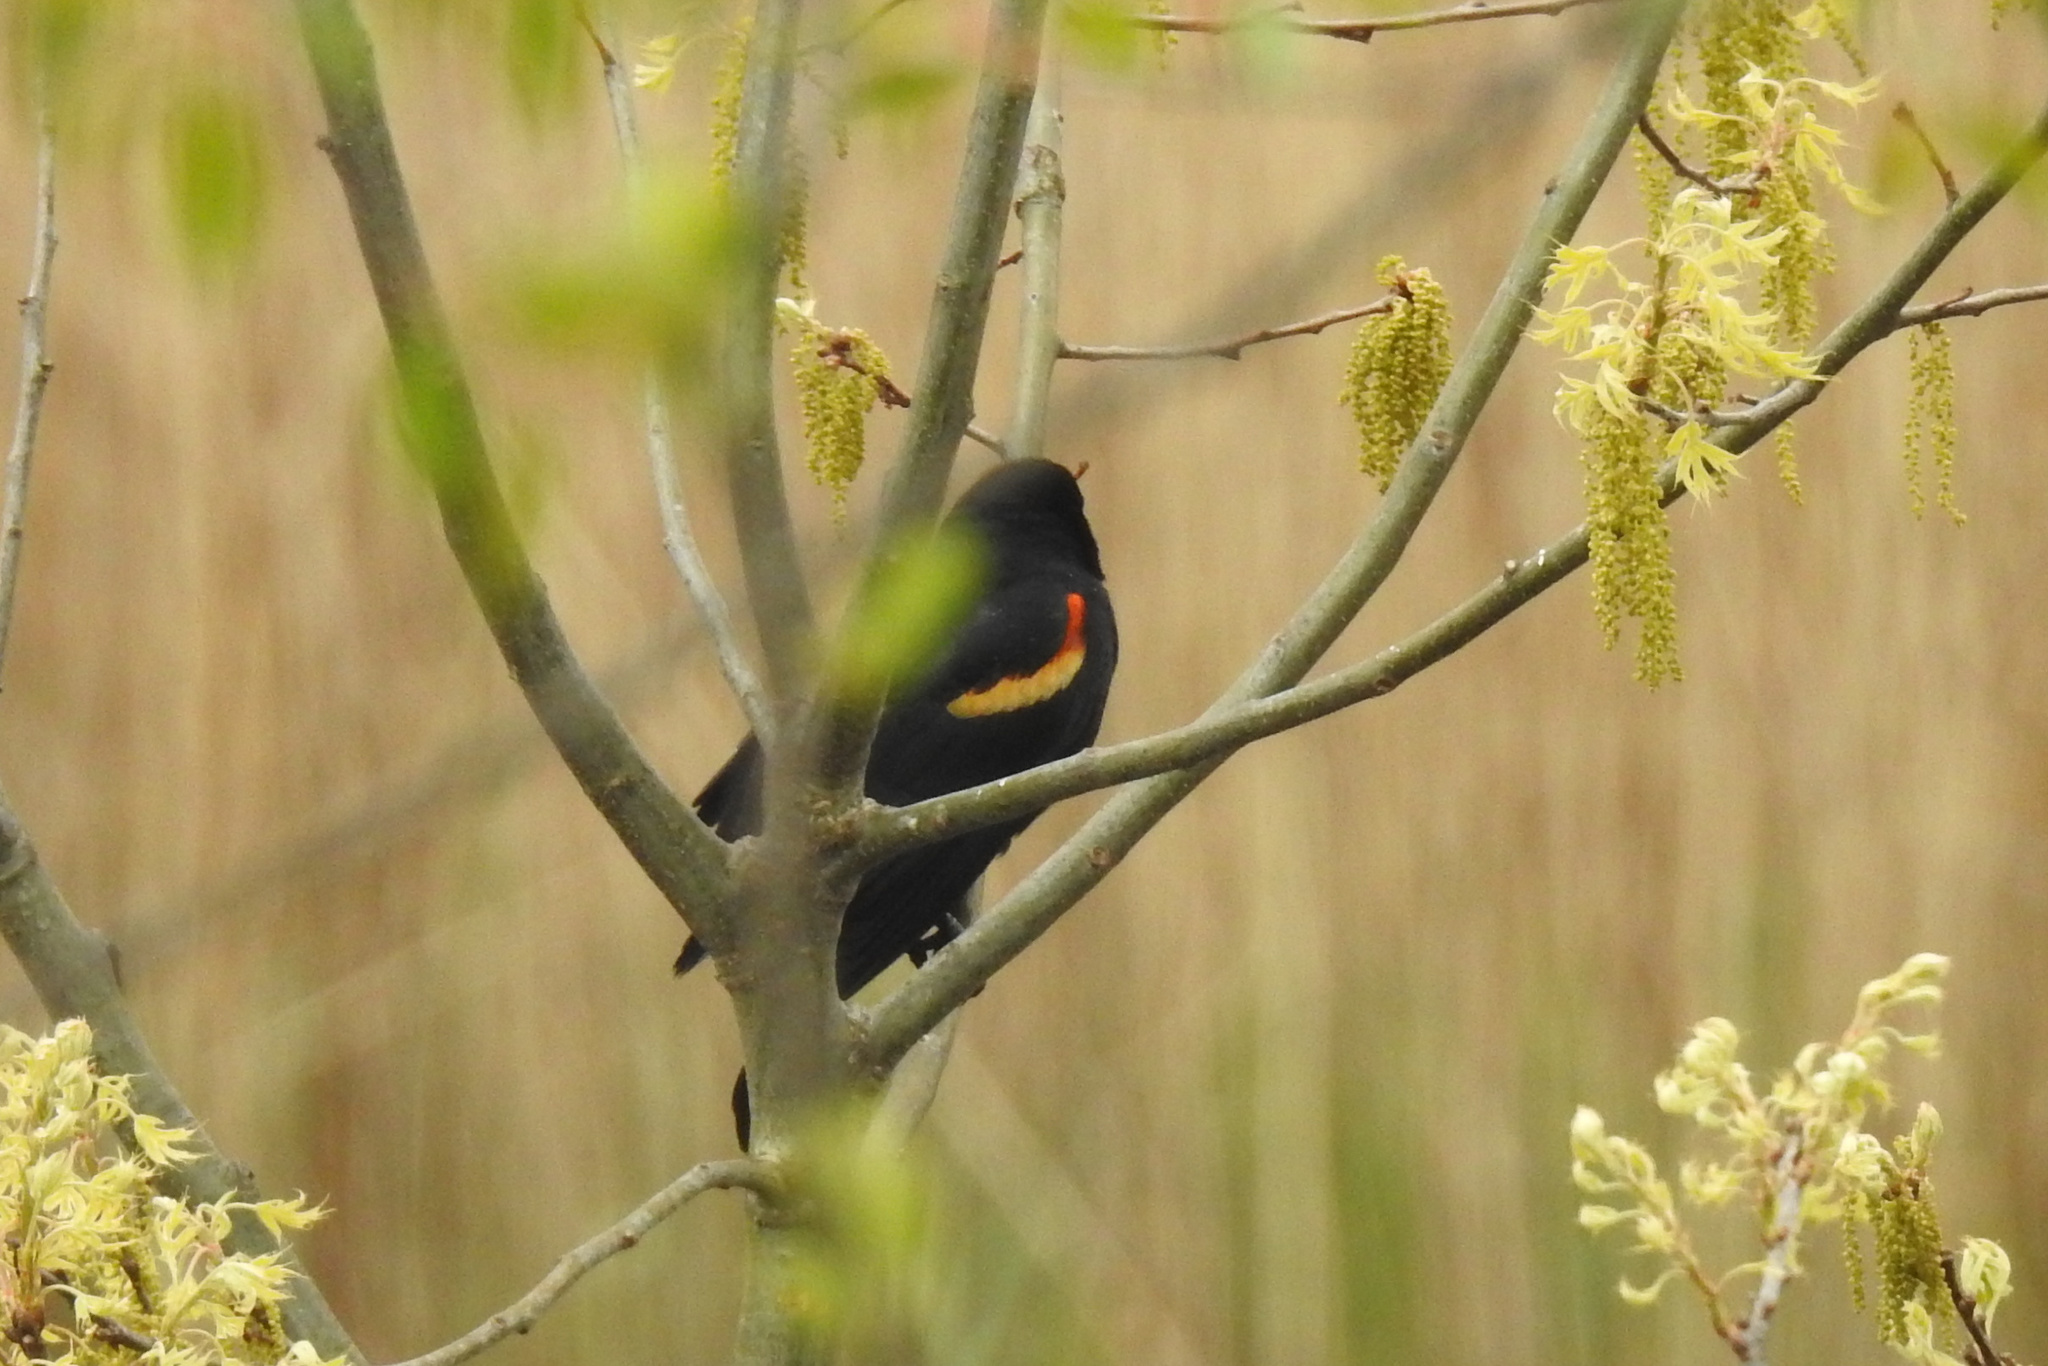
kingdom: Animalia
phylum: Chordata
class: Aves
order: Passeriformes
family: Icteridae
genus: Agelaius
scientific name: Agelaius phoeniceus
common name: Red-winged blackbird
